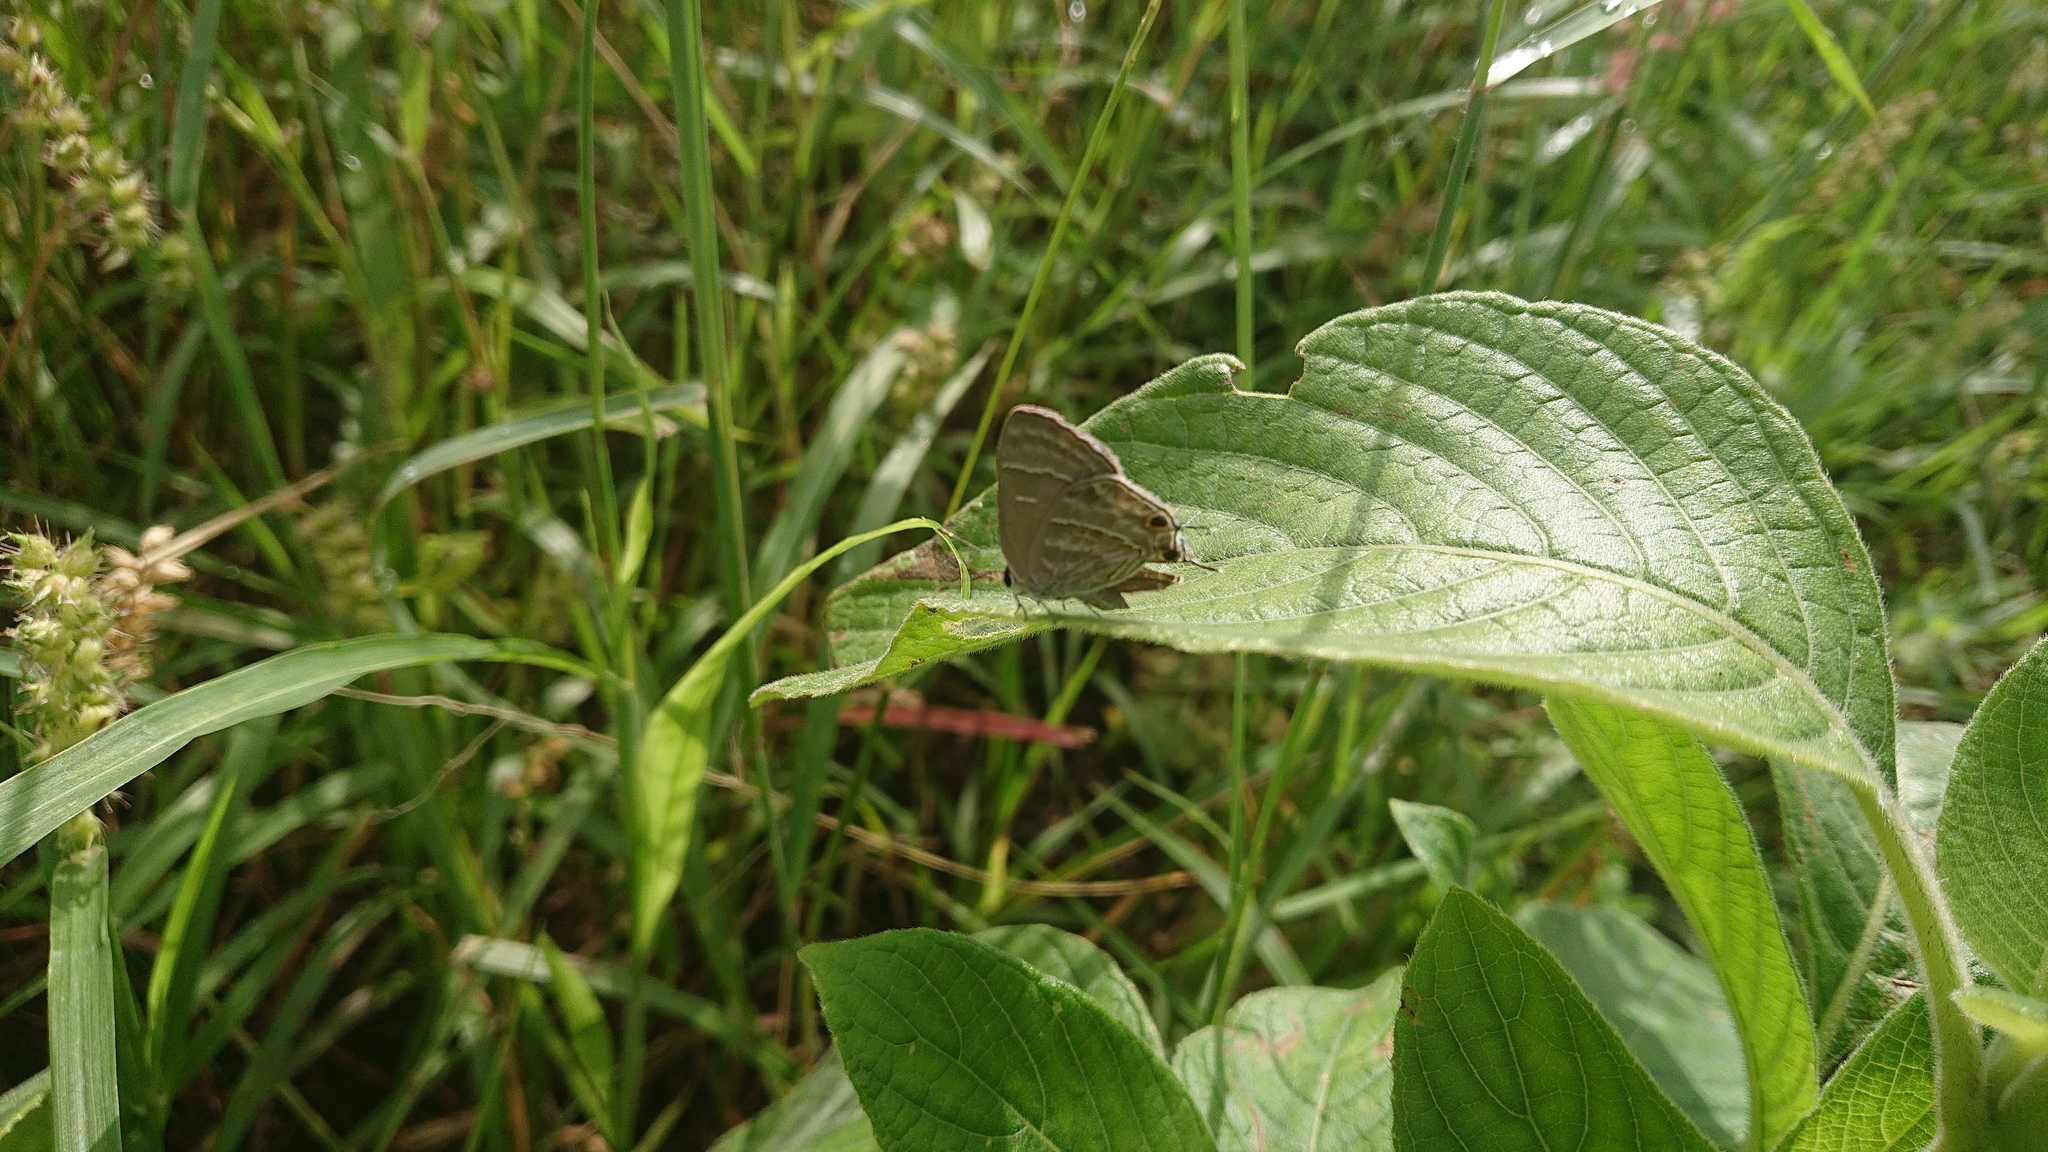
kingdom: Animalia
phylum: Arthropoda
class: Insecta
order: Lepidoptera
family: Lycaenidae
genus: Strymon
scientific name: Strymon
